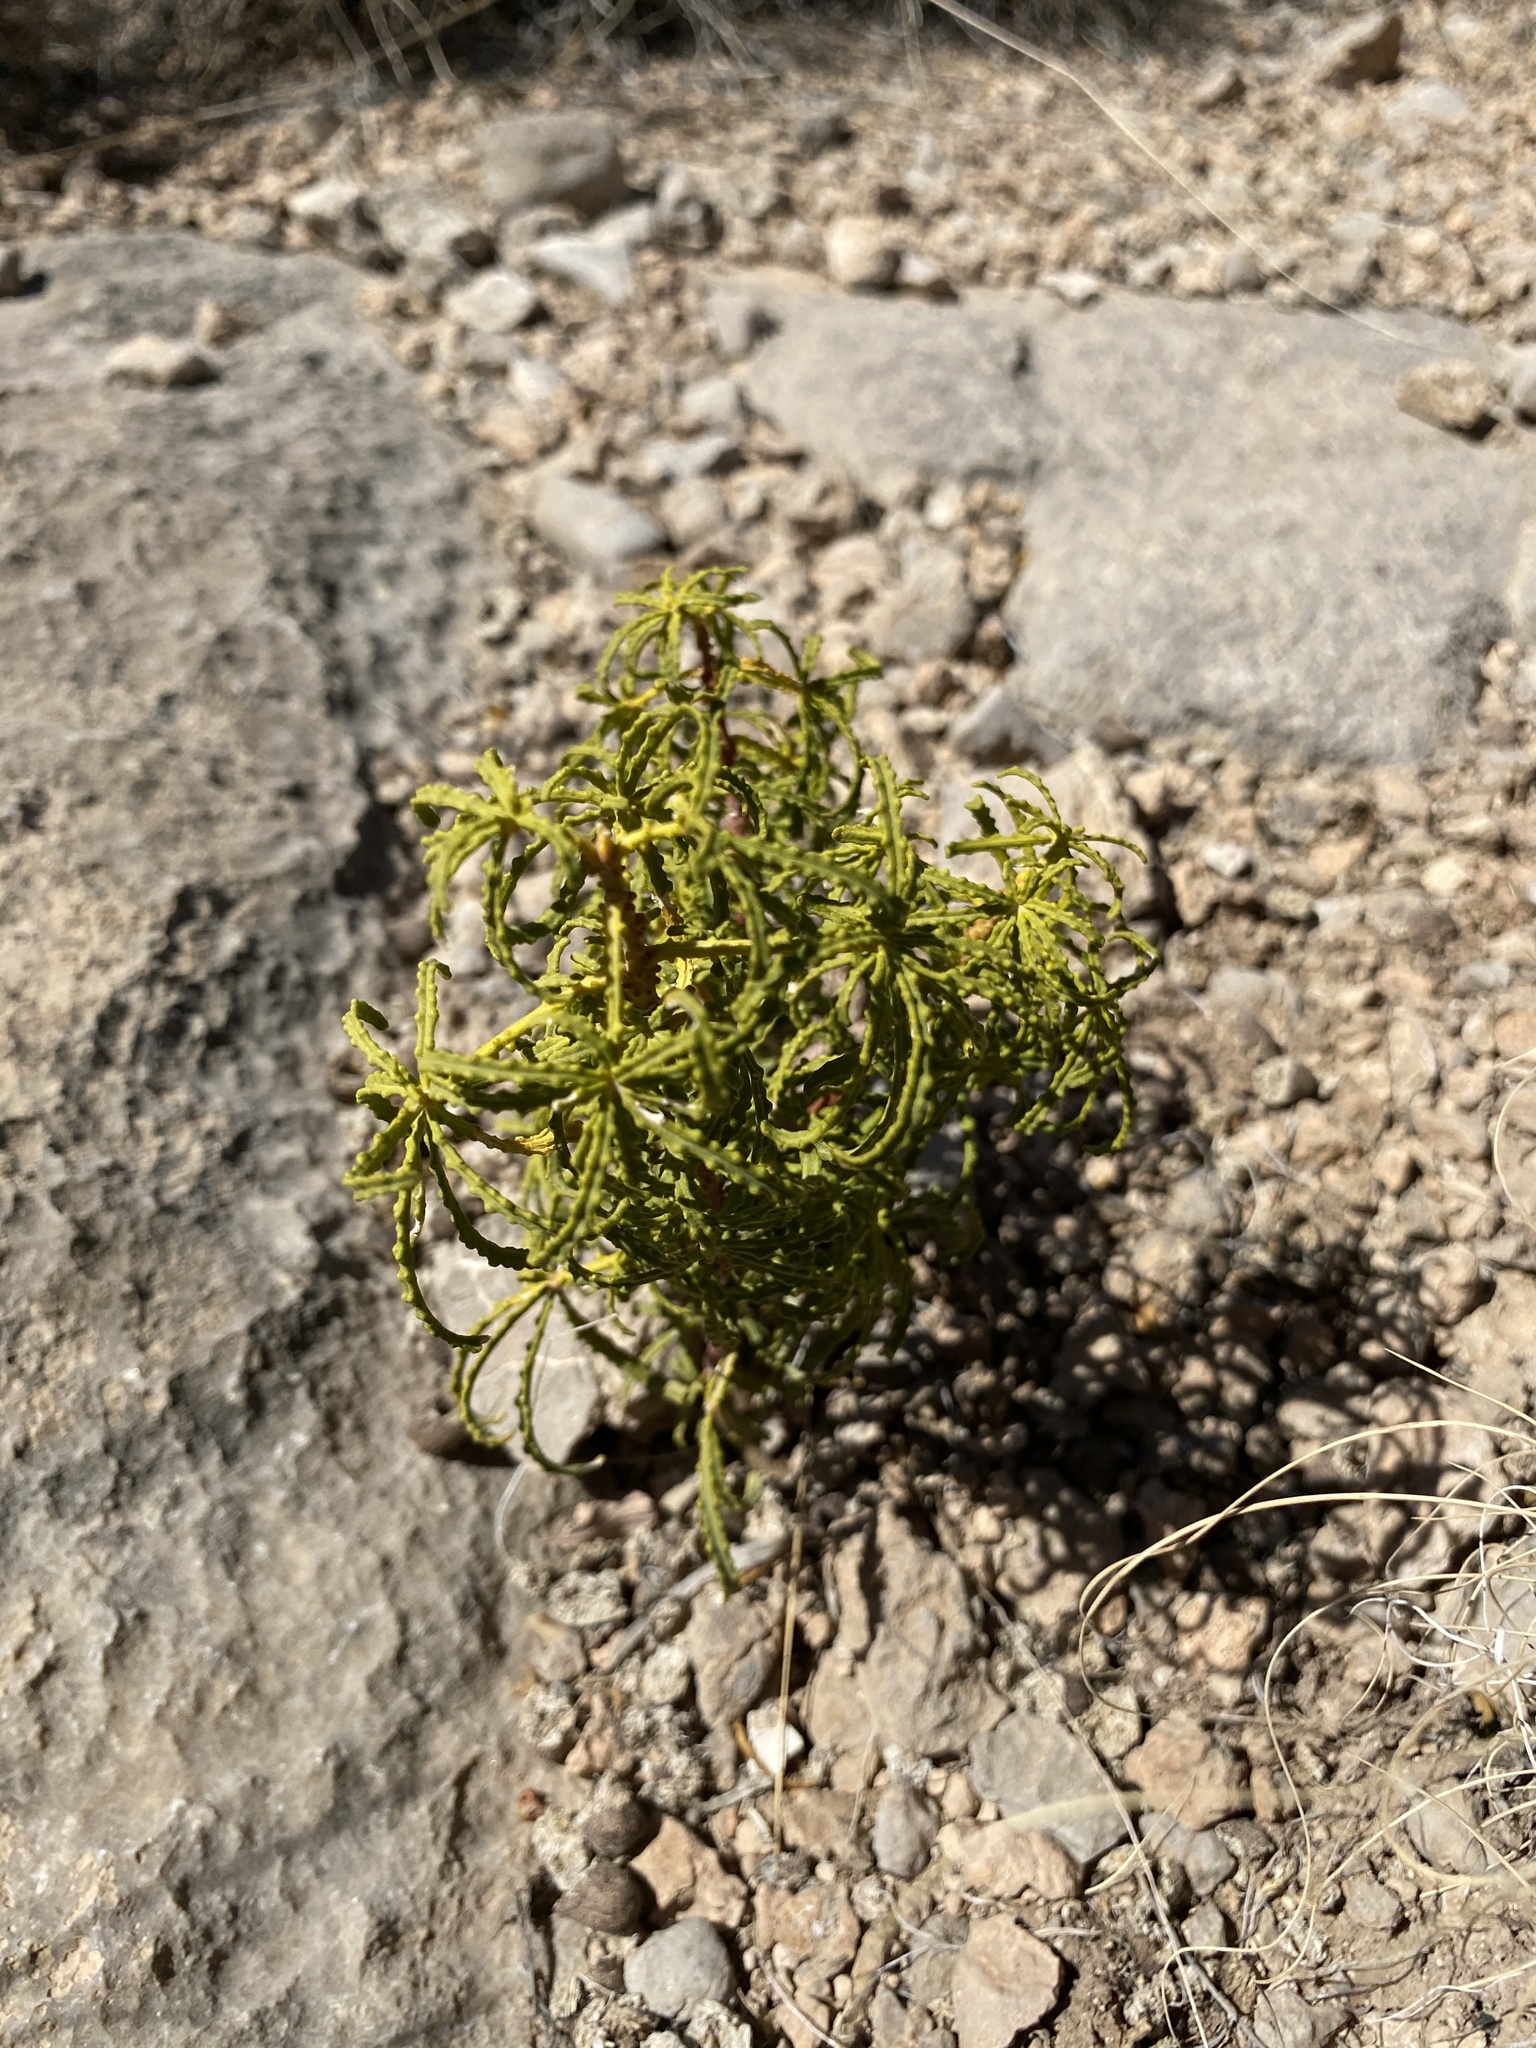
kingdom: Plantae
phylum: Tracheophyta
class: Magnoliopsida
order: Sapindales
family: Rutaceae
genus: Choisya
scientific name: Choisya dumosa
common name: Mexican-orange
